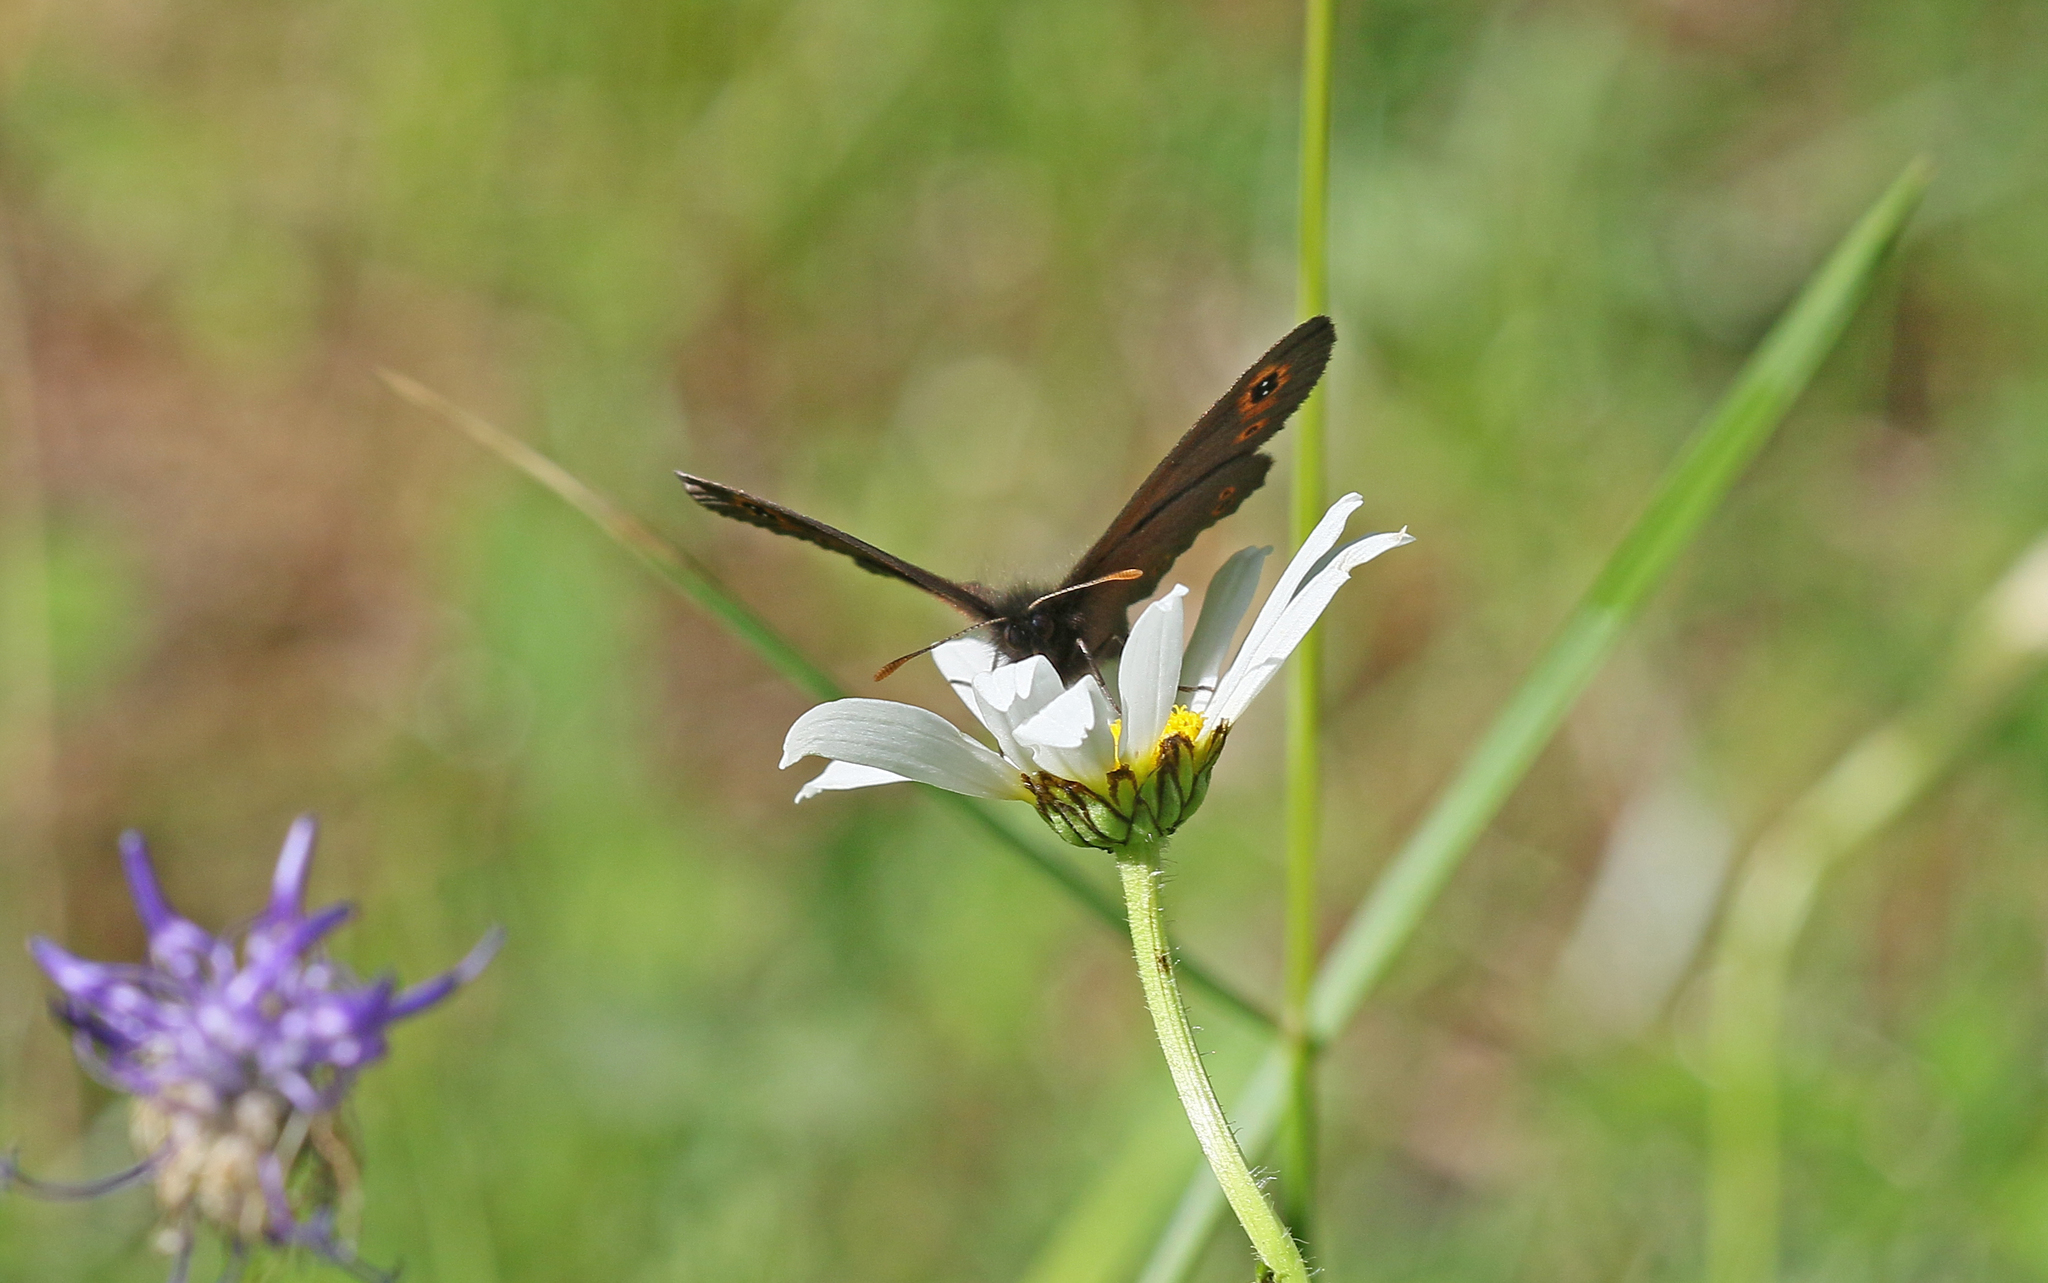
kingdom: Animalia
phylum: Arthropoda
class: Insecta
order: Lepidoptera
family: Nymphalidae
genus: Erebia
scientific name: Erebia medusa
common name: Woodland ringlet
